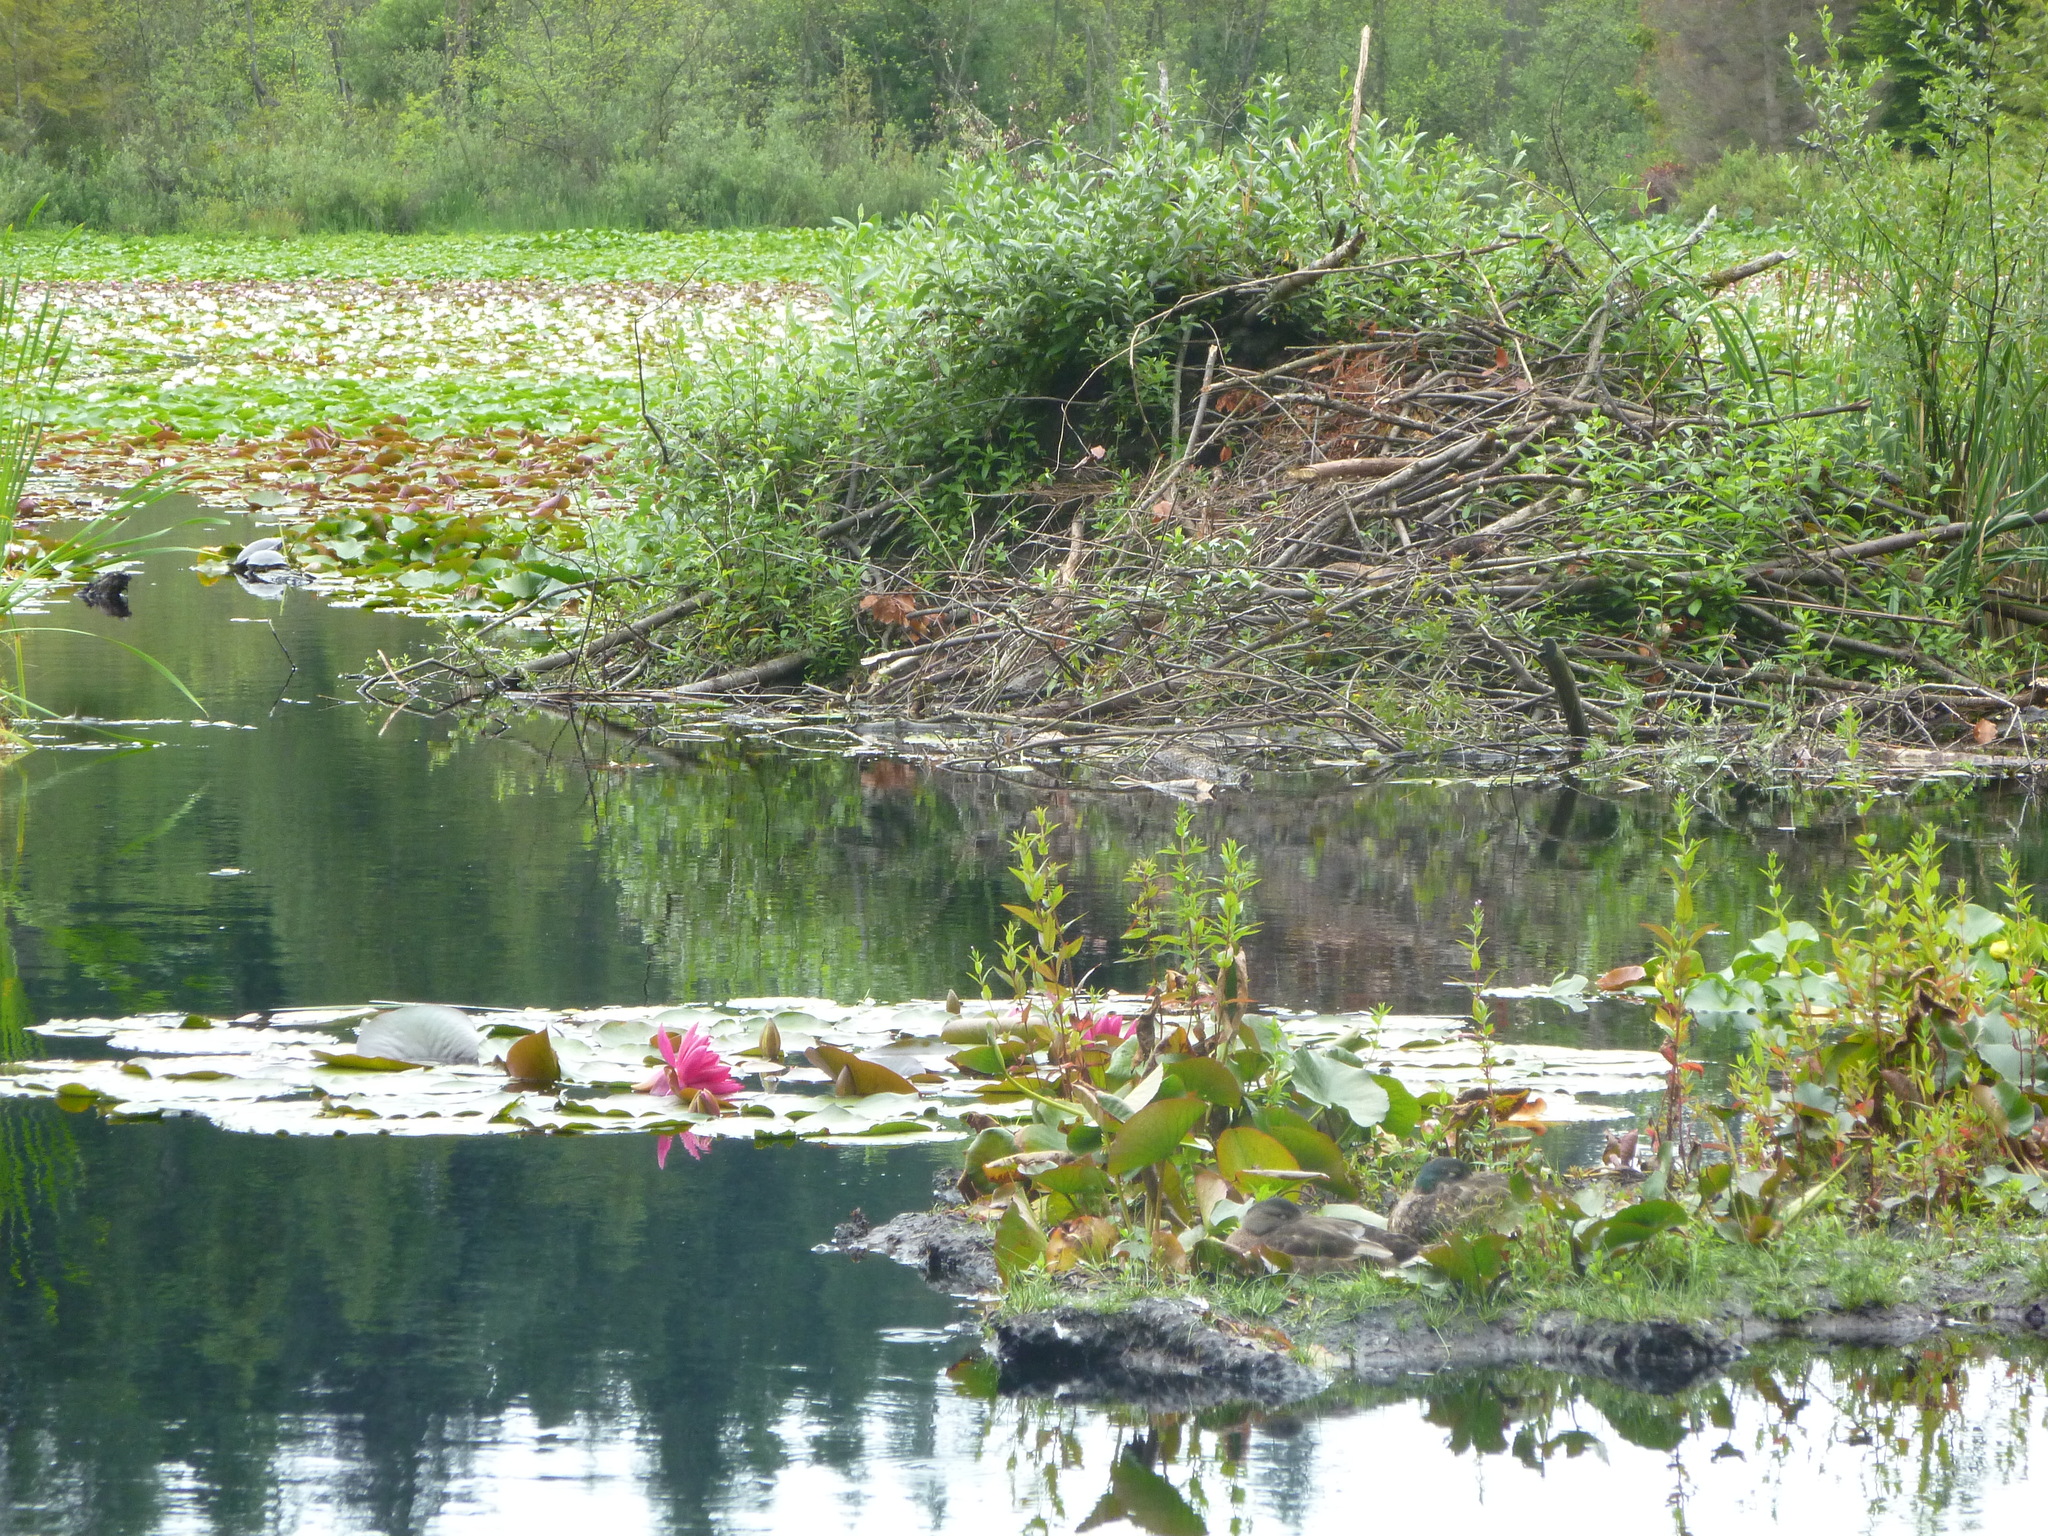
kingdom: Animalia
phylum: Chordata
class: Aves
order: Anseriformes
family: Anatidae
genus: Anas
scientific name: Anas platyrhynchos
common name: Mallard
